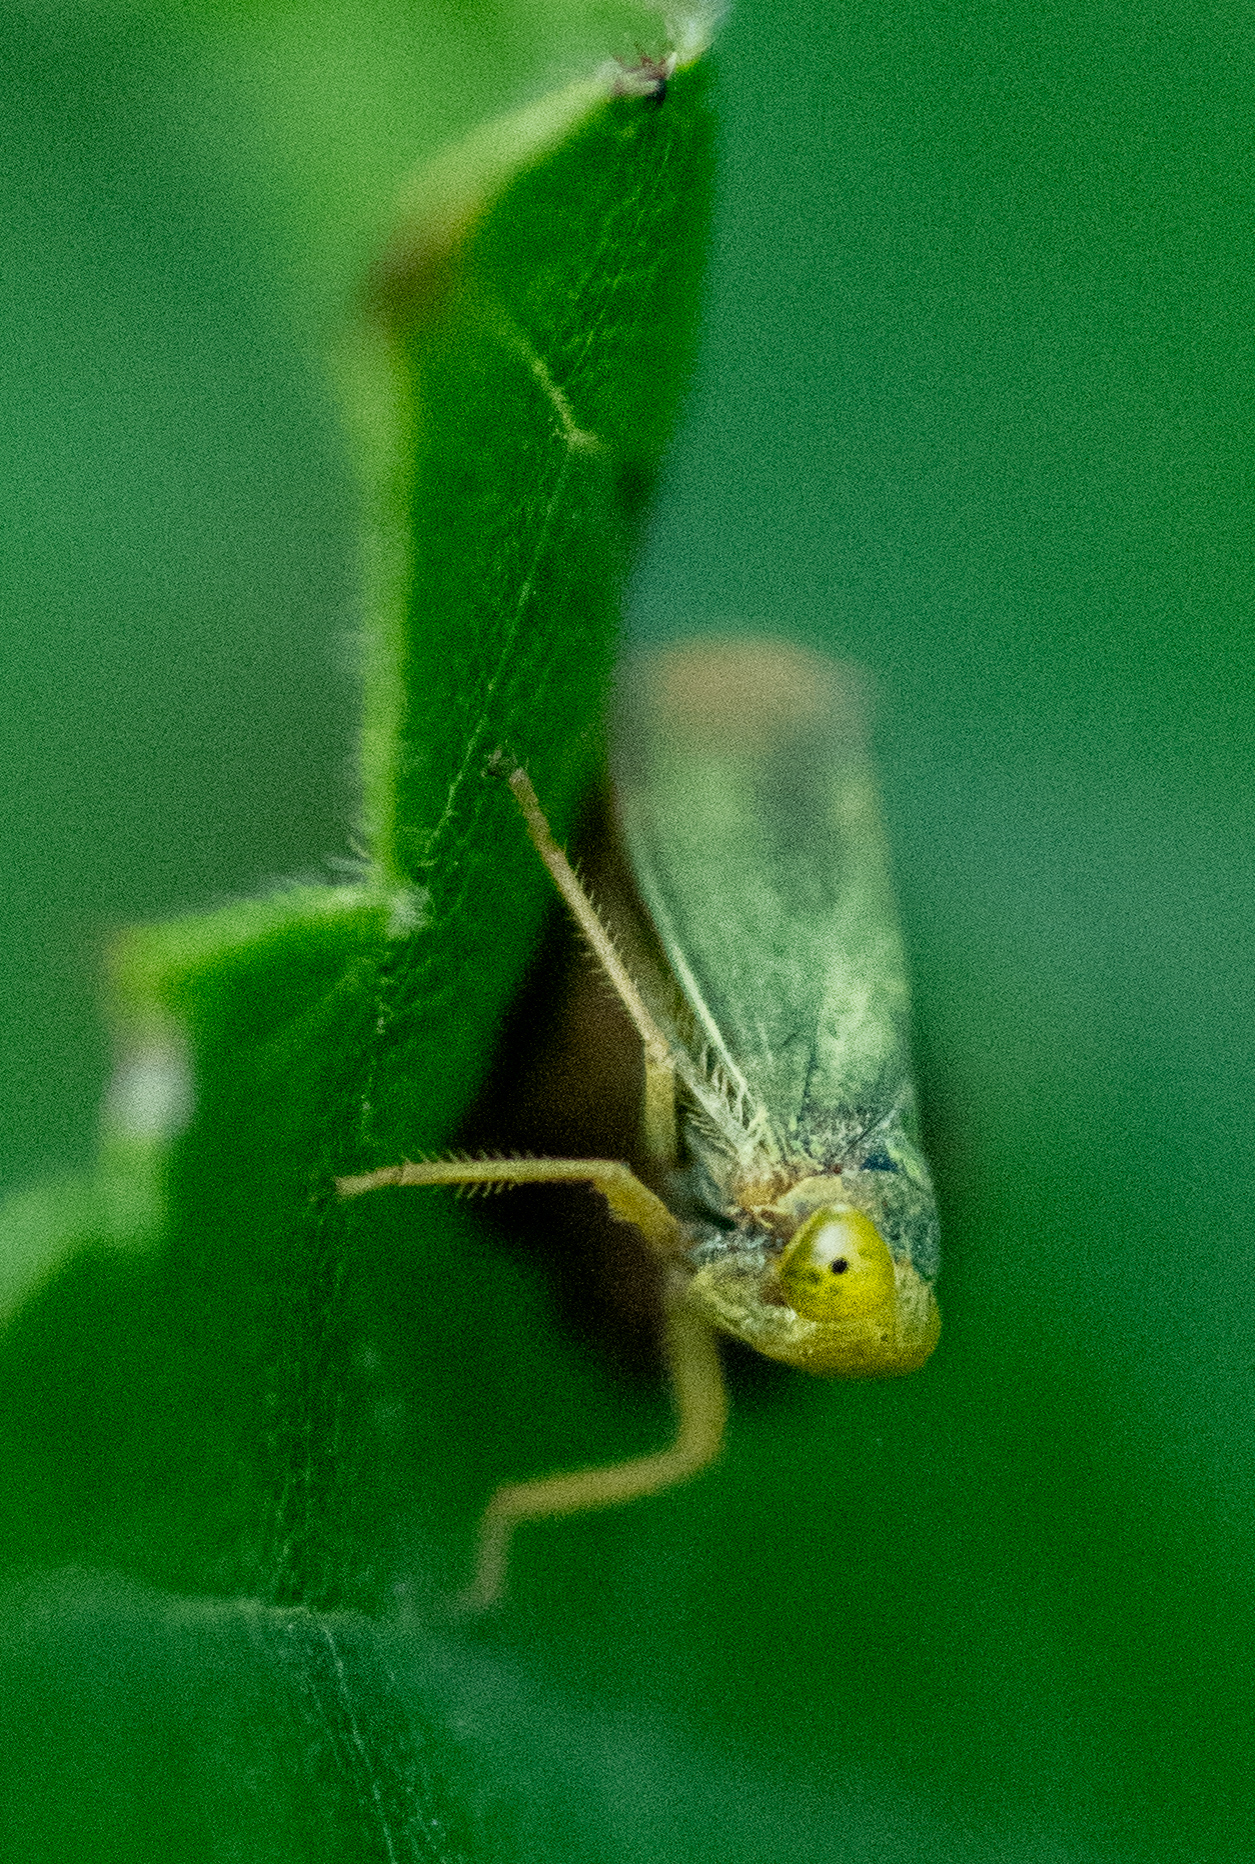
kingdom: Animalia
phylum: Arthropoda
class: Insecta
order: Hemiptera
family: Cicadellidae
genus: Jikradia
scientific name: Jikradia olitoria
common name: Coppery leafhopper
